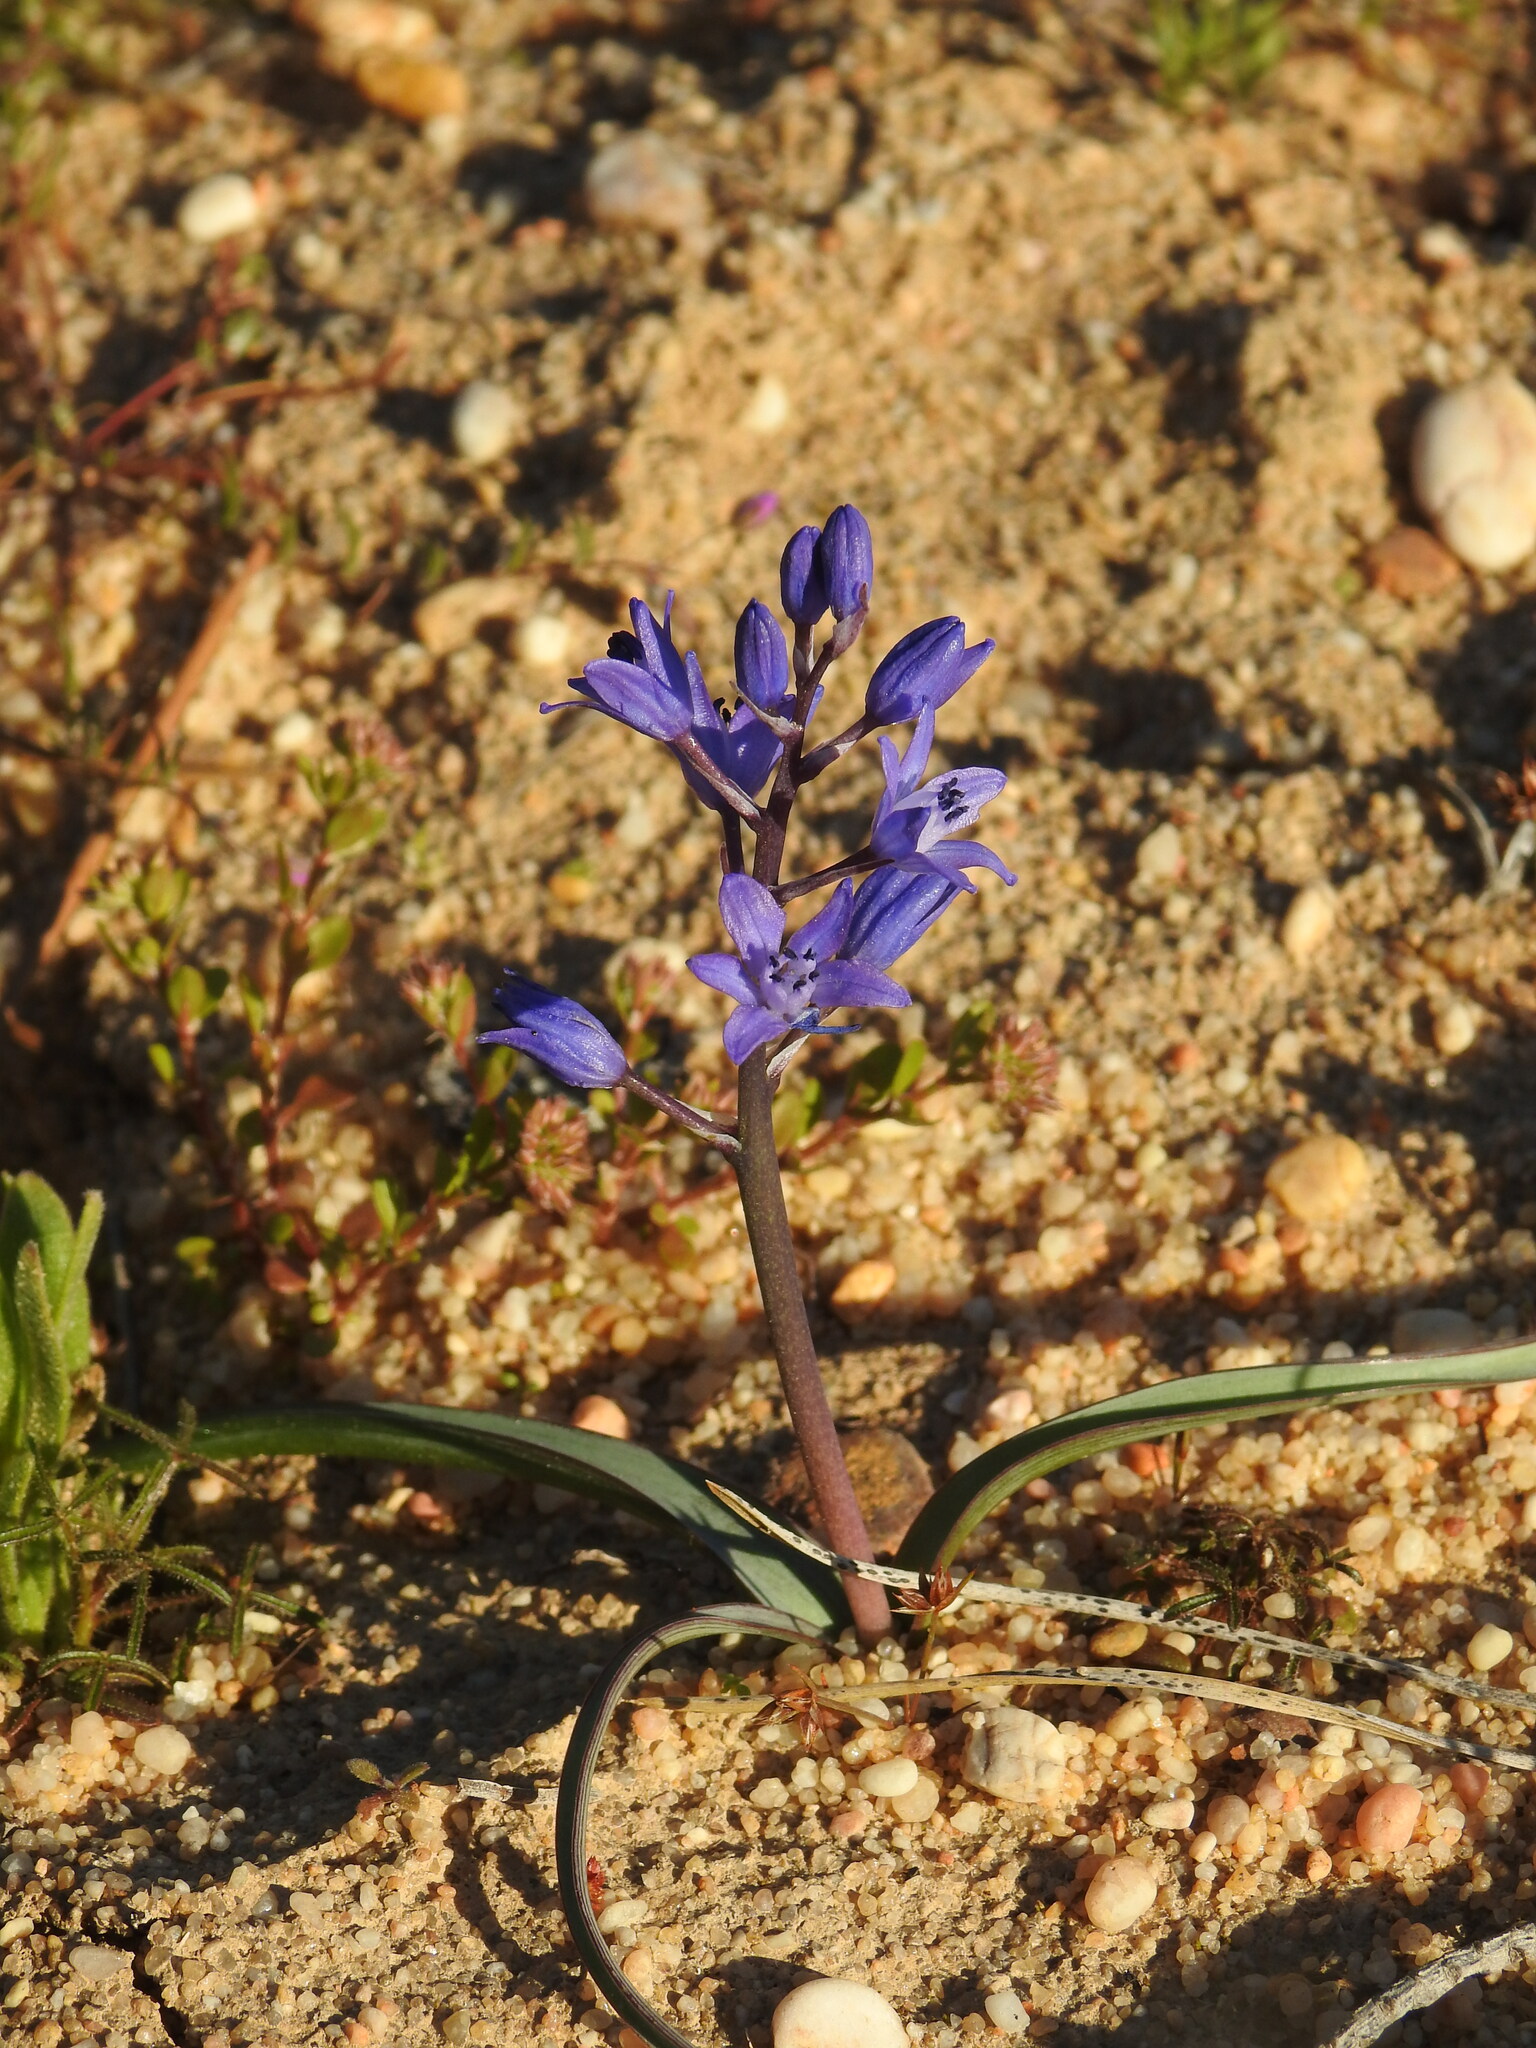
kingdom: Plantae
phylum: Tracheophyta
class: Liliopsida
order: Asparagales
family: Asparagaceae
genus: Scilla
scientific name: Scilla verna
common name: Spring squill
